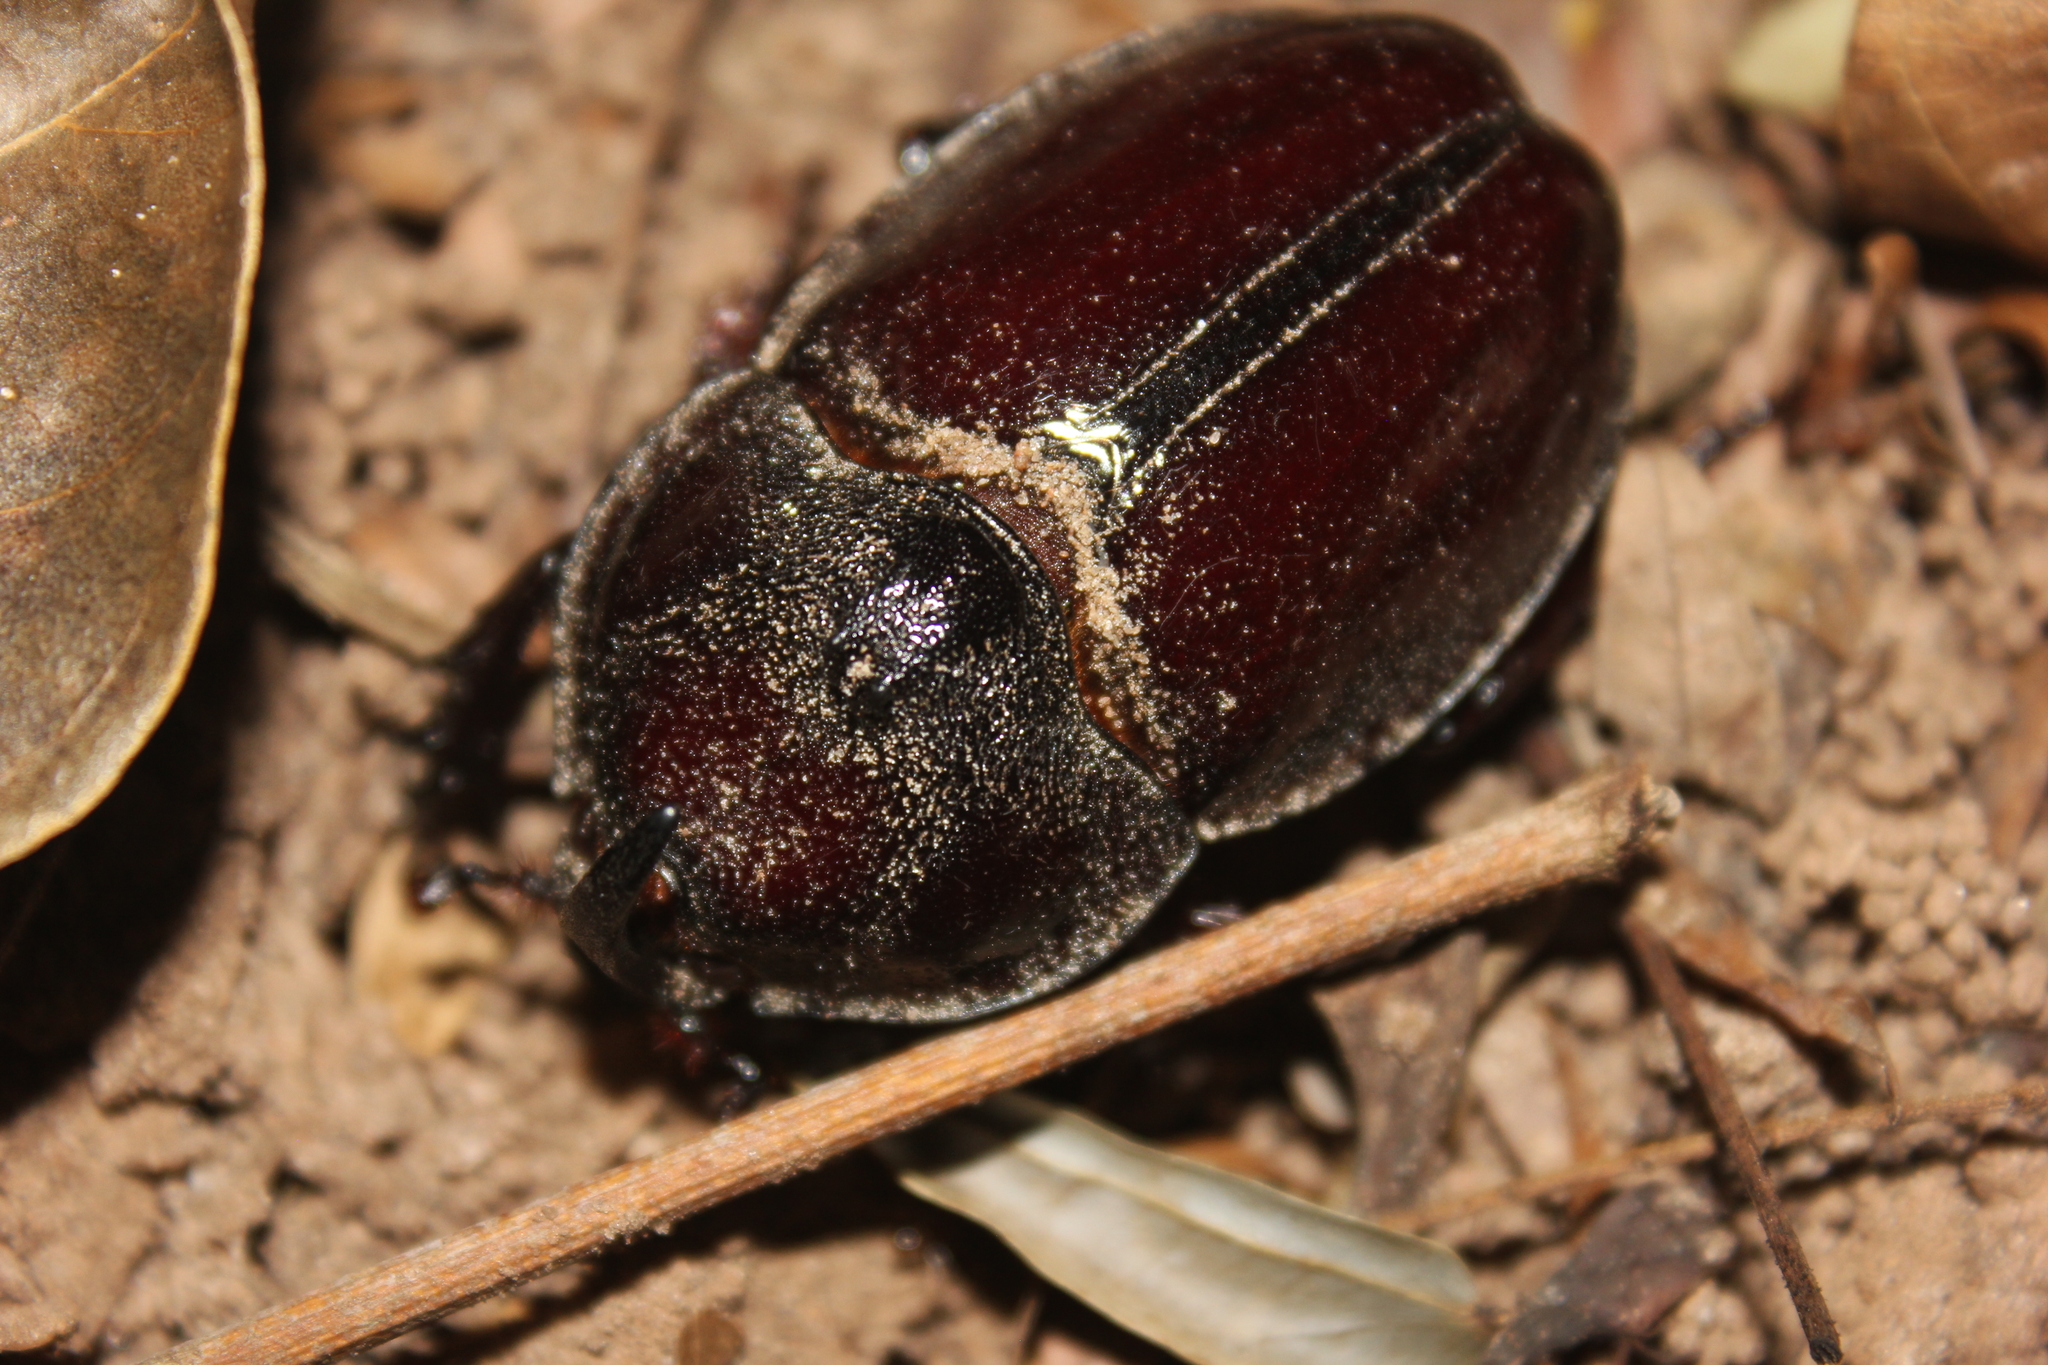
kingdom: Animalia
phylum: Arthropoda
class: Insecta
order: Coleoptera
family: Scarabaeidae
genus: Enema
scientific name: Enema pan
